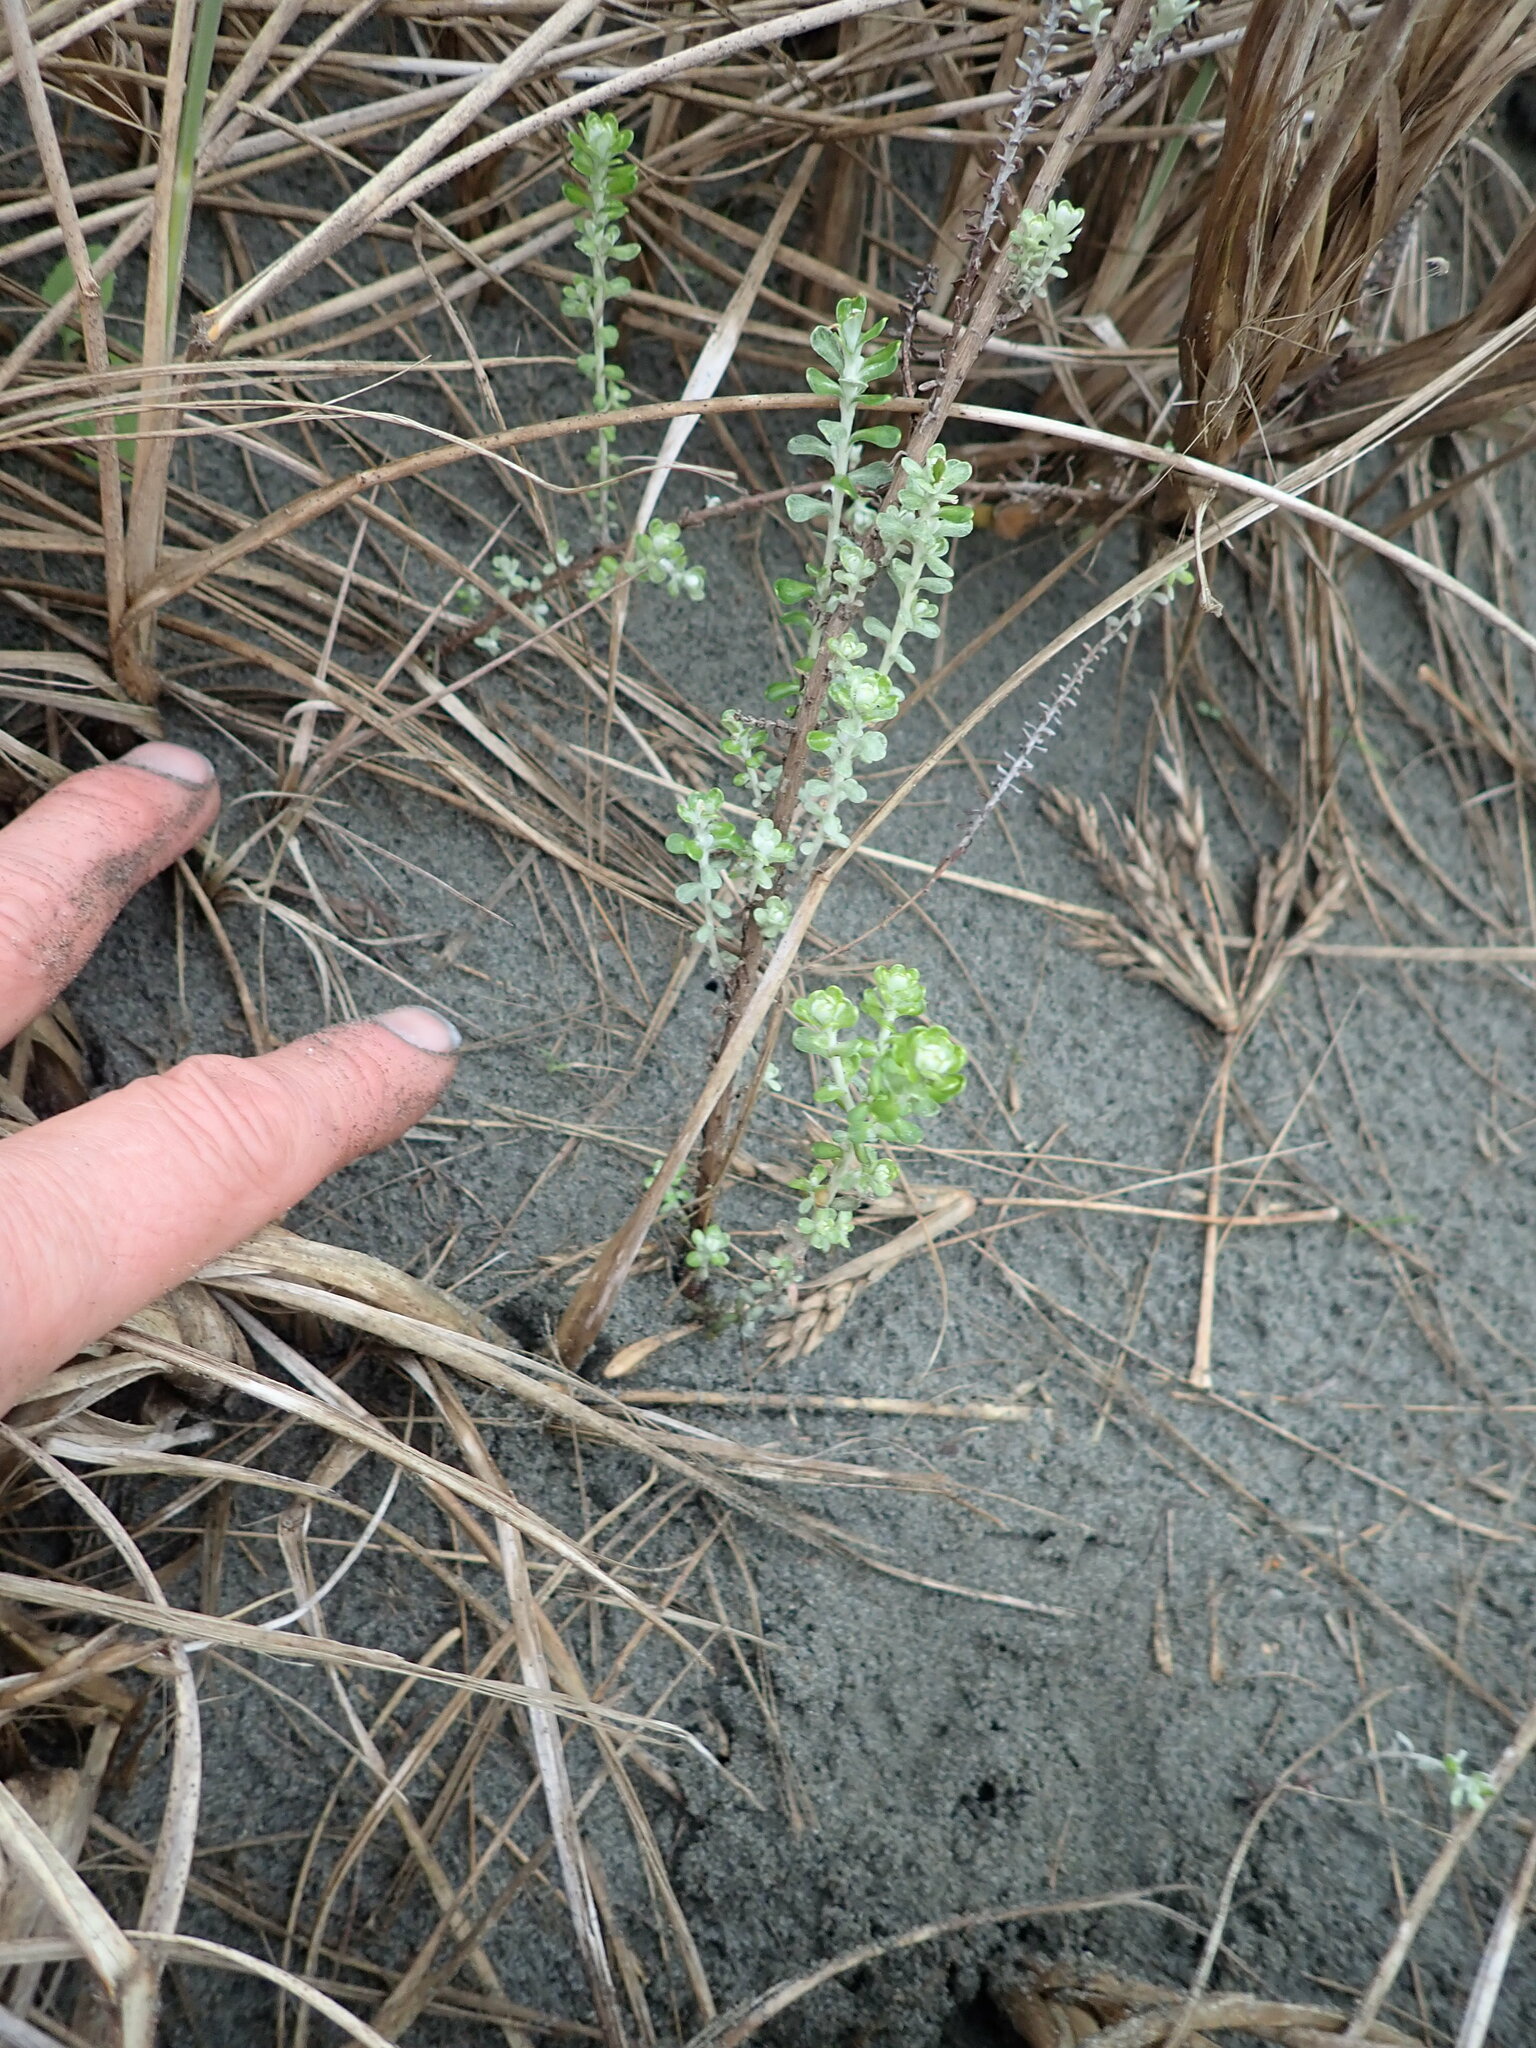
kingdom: Plantae
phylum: Tracheophyta
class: Magnoliopsida
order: Asterales
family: Asteraceae
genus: Ozothamnus
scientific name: Ozothamnus leptophyllus
